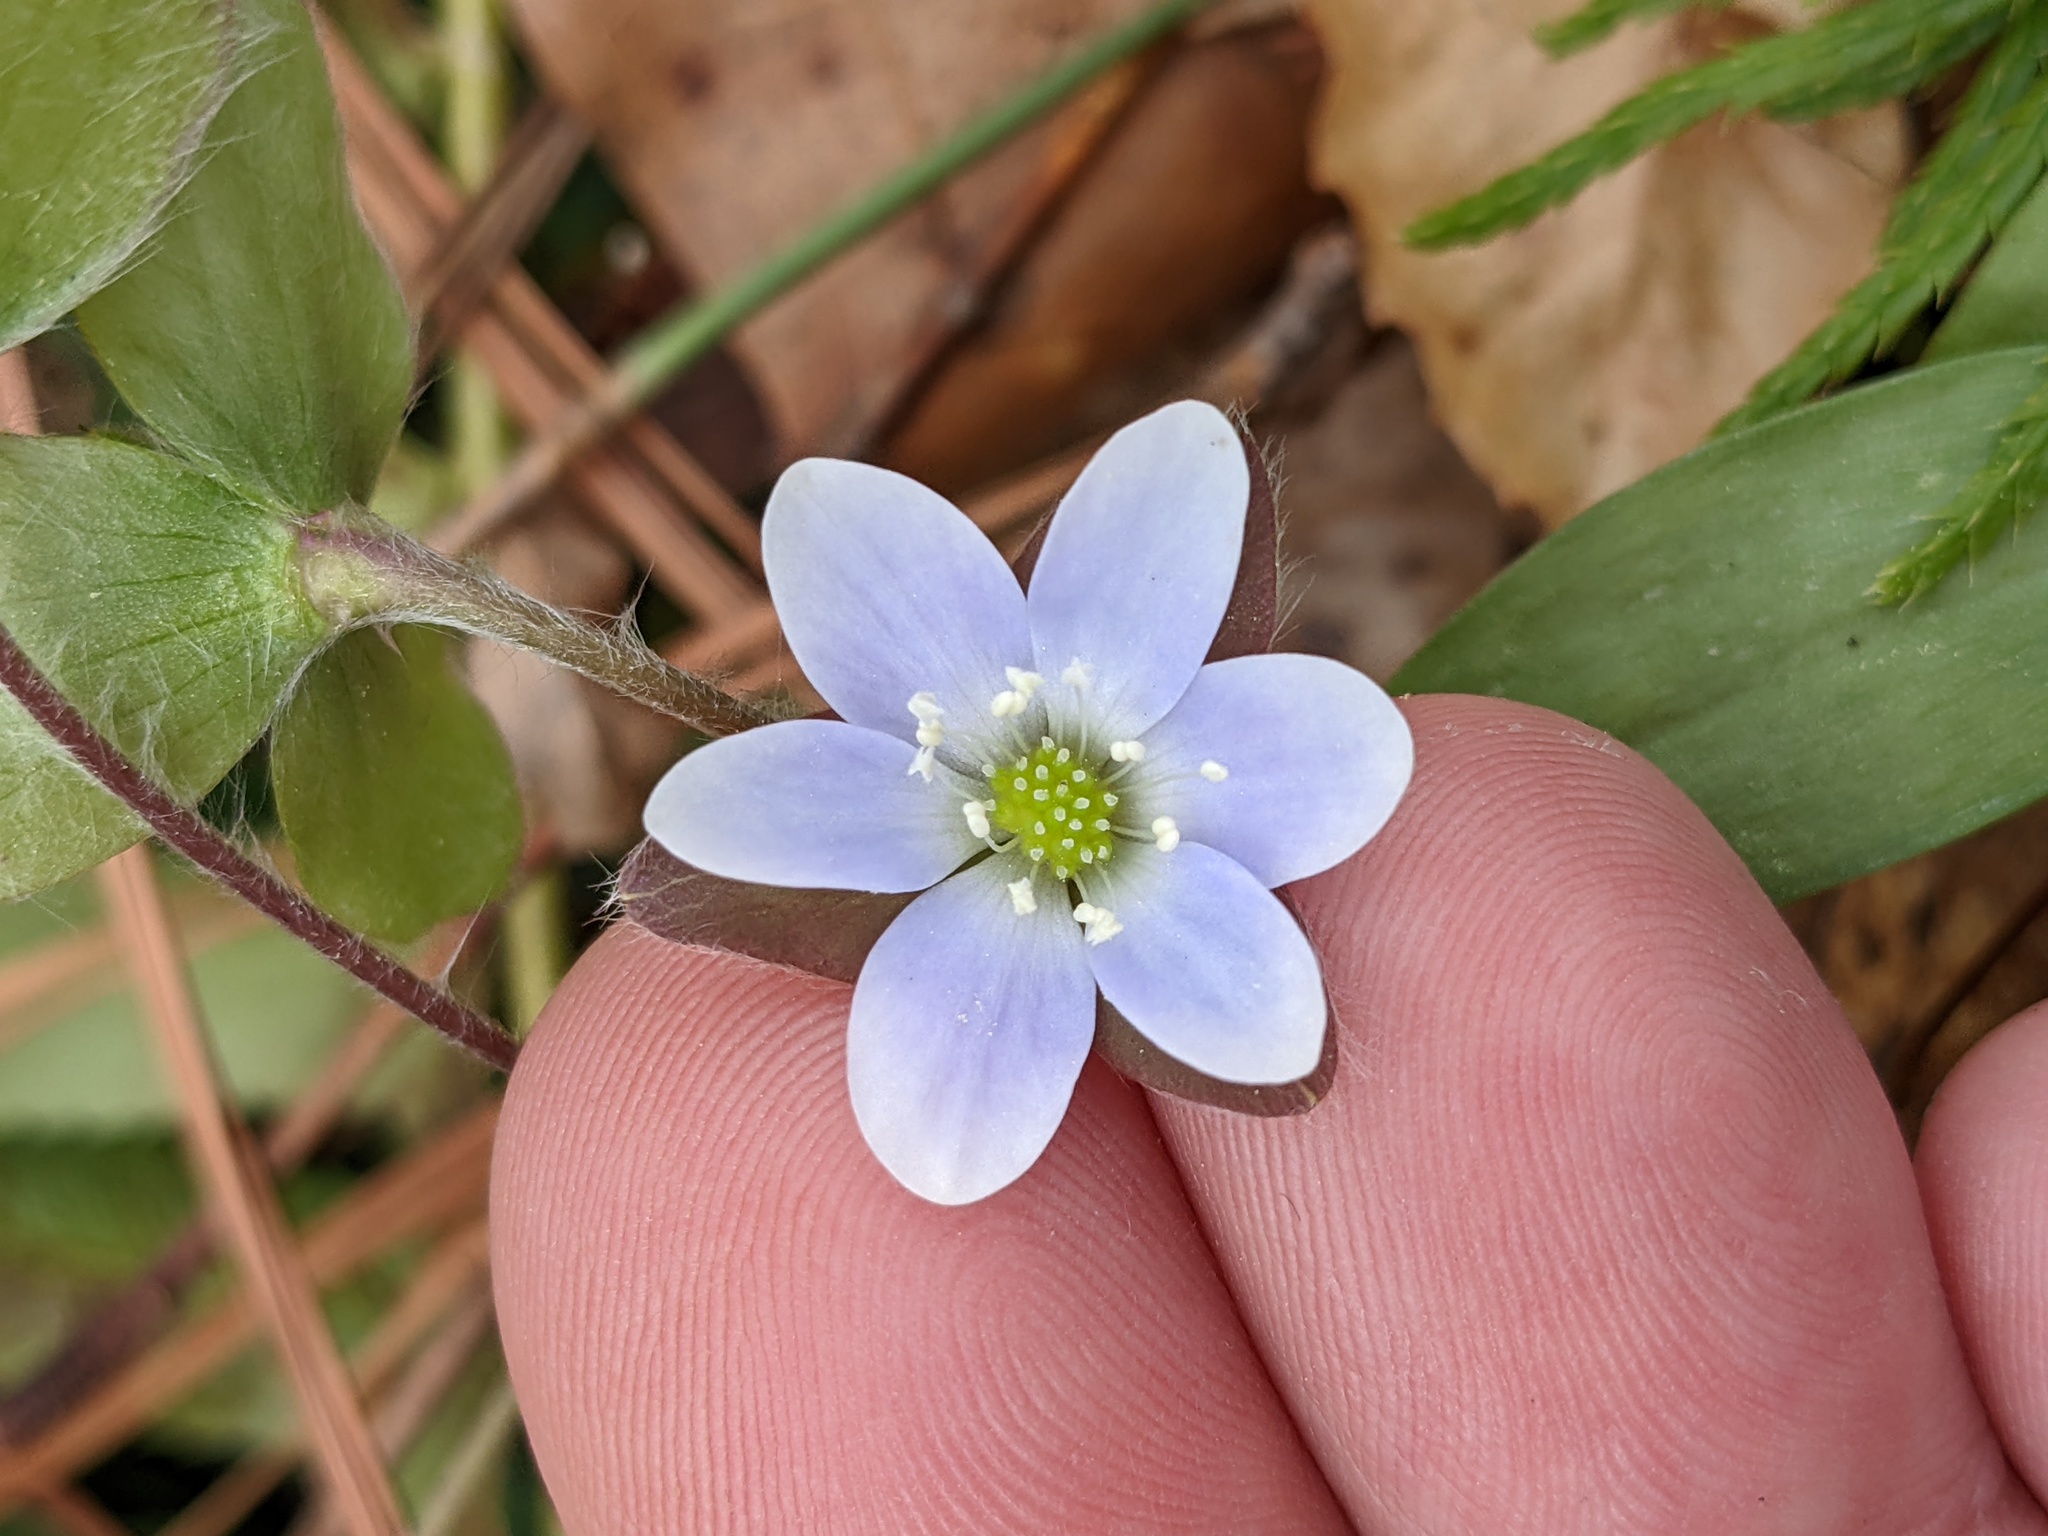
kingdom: Plantae
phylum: Tracheophyta
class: Magnoliopsida
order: Ranunculales
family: Ranunculaceae
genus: Hepatica
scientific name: Hepatica americana
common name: American hepatica
